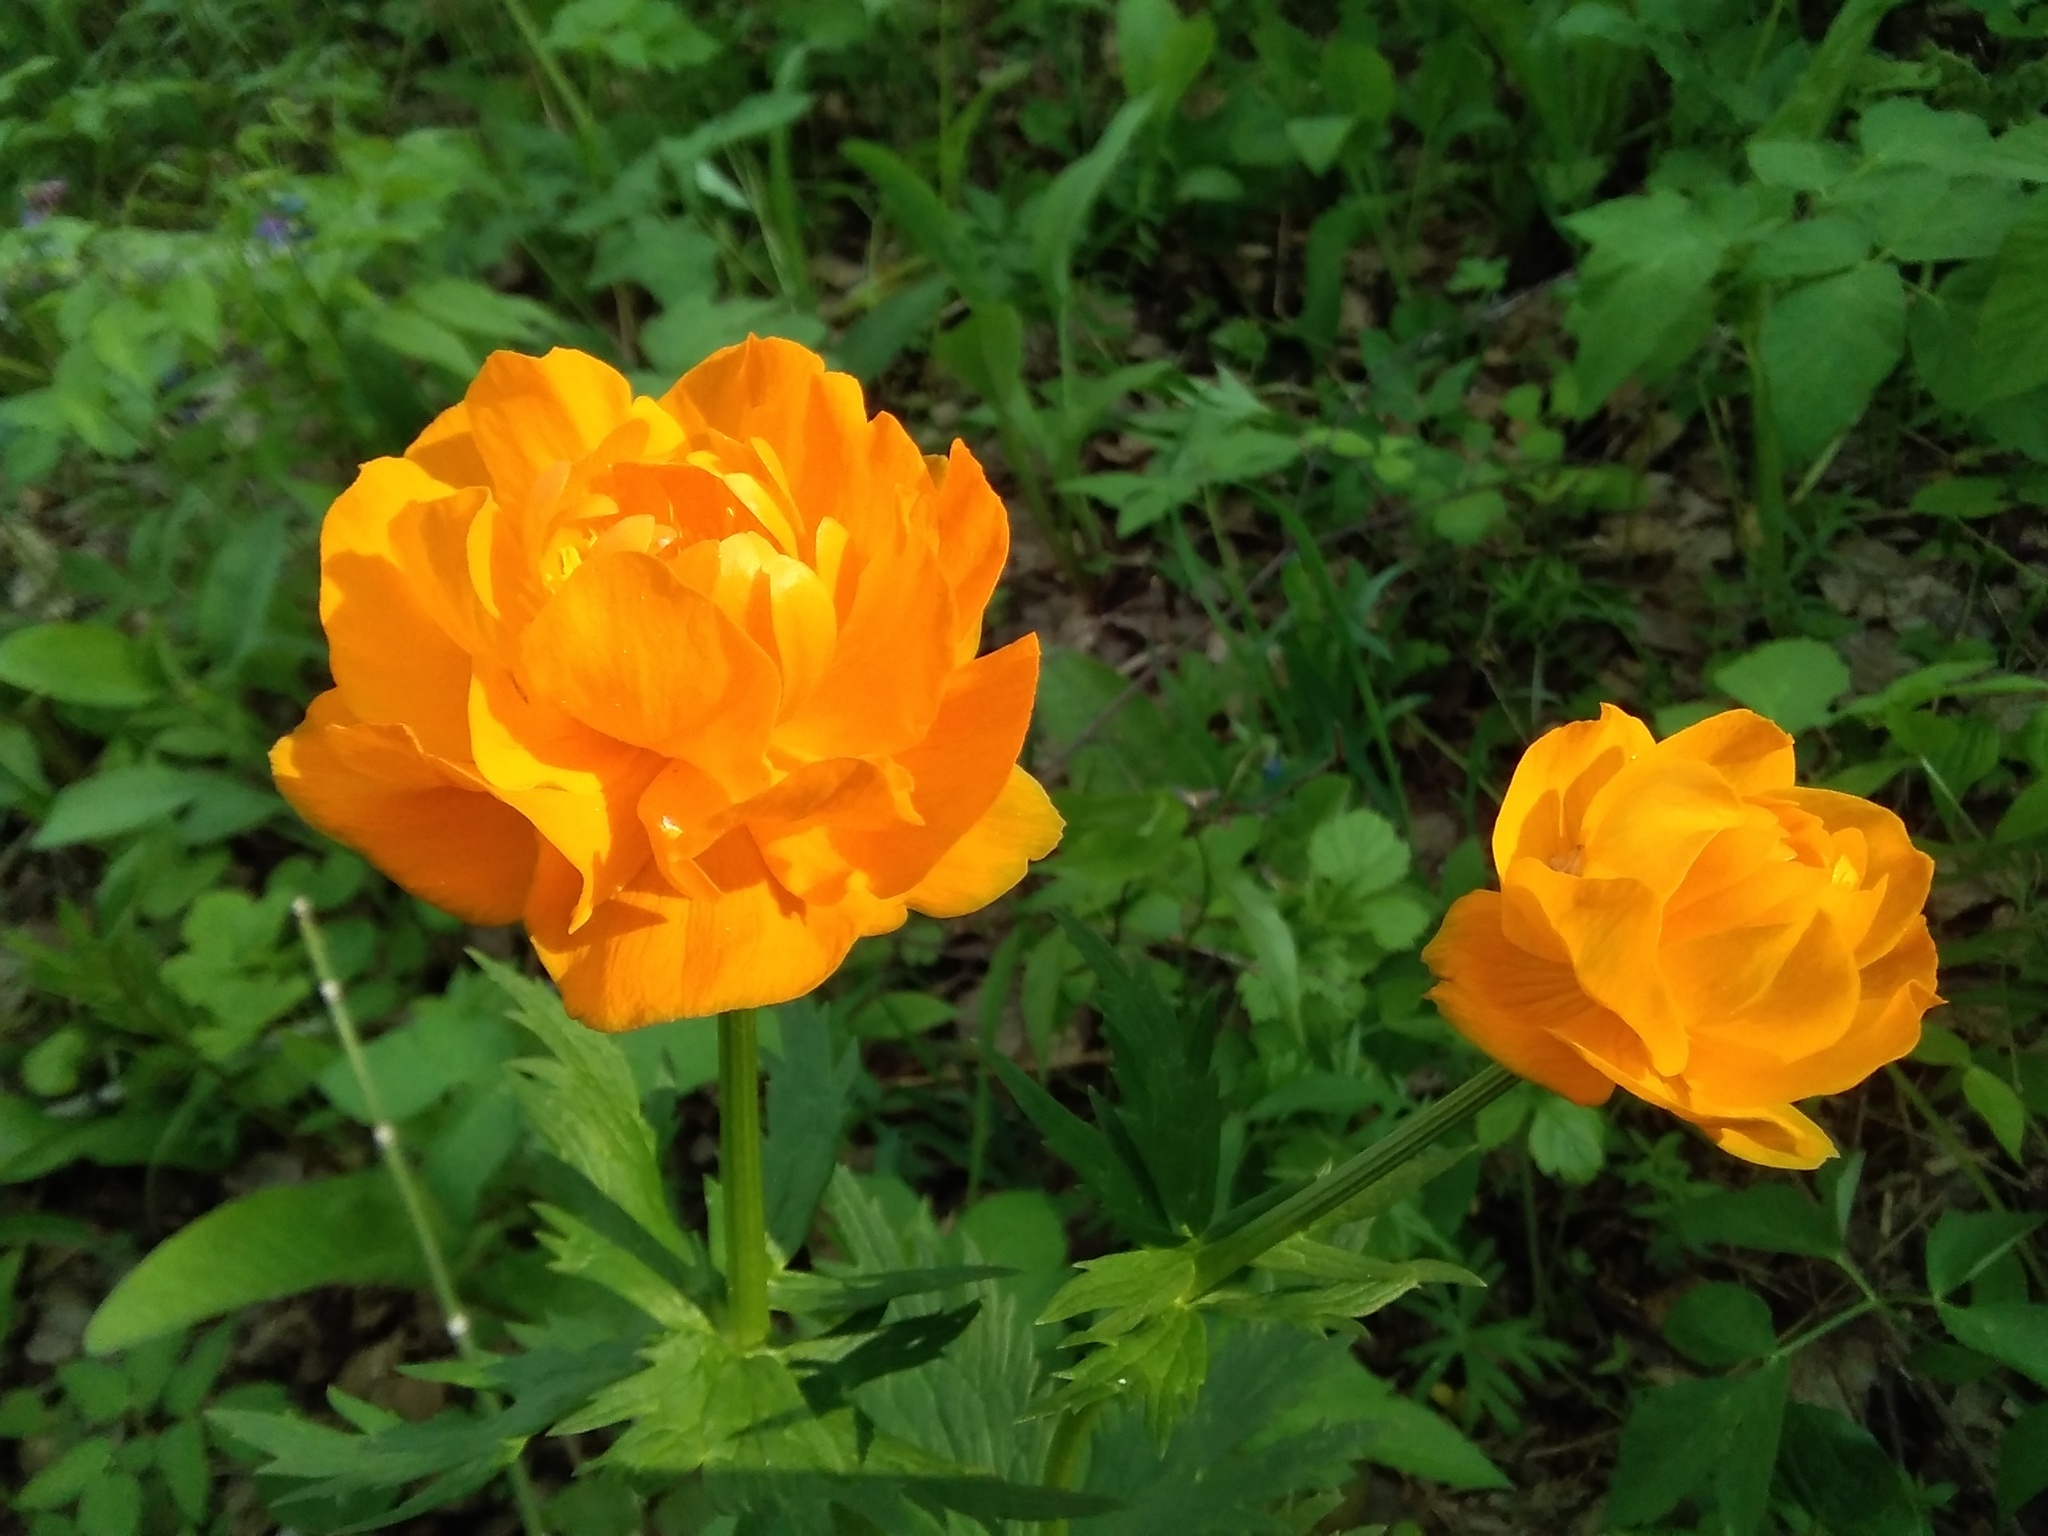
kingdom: Plantae
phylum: Tracheophyta
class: Magnoliopsida
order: Ranunculales
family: Ranunculaceae
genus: Trollius
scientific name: Trollius asiaticus
